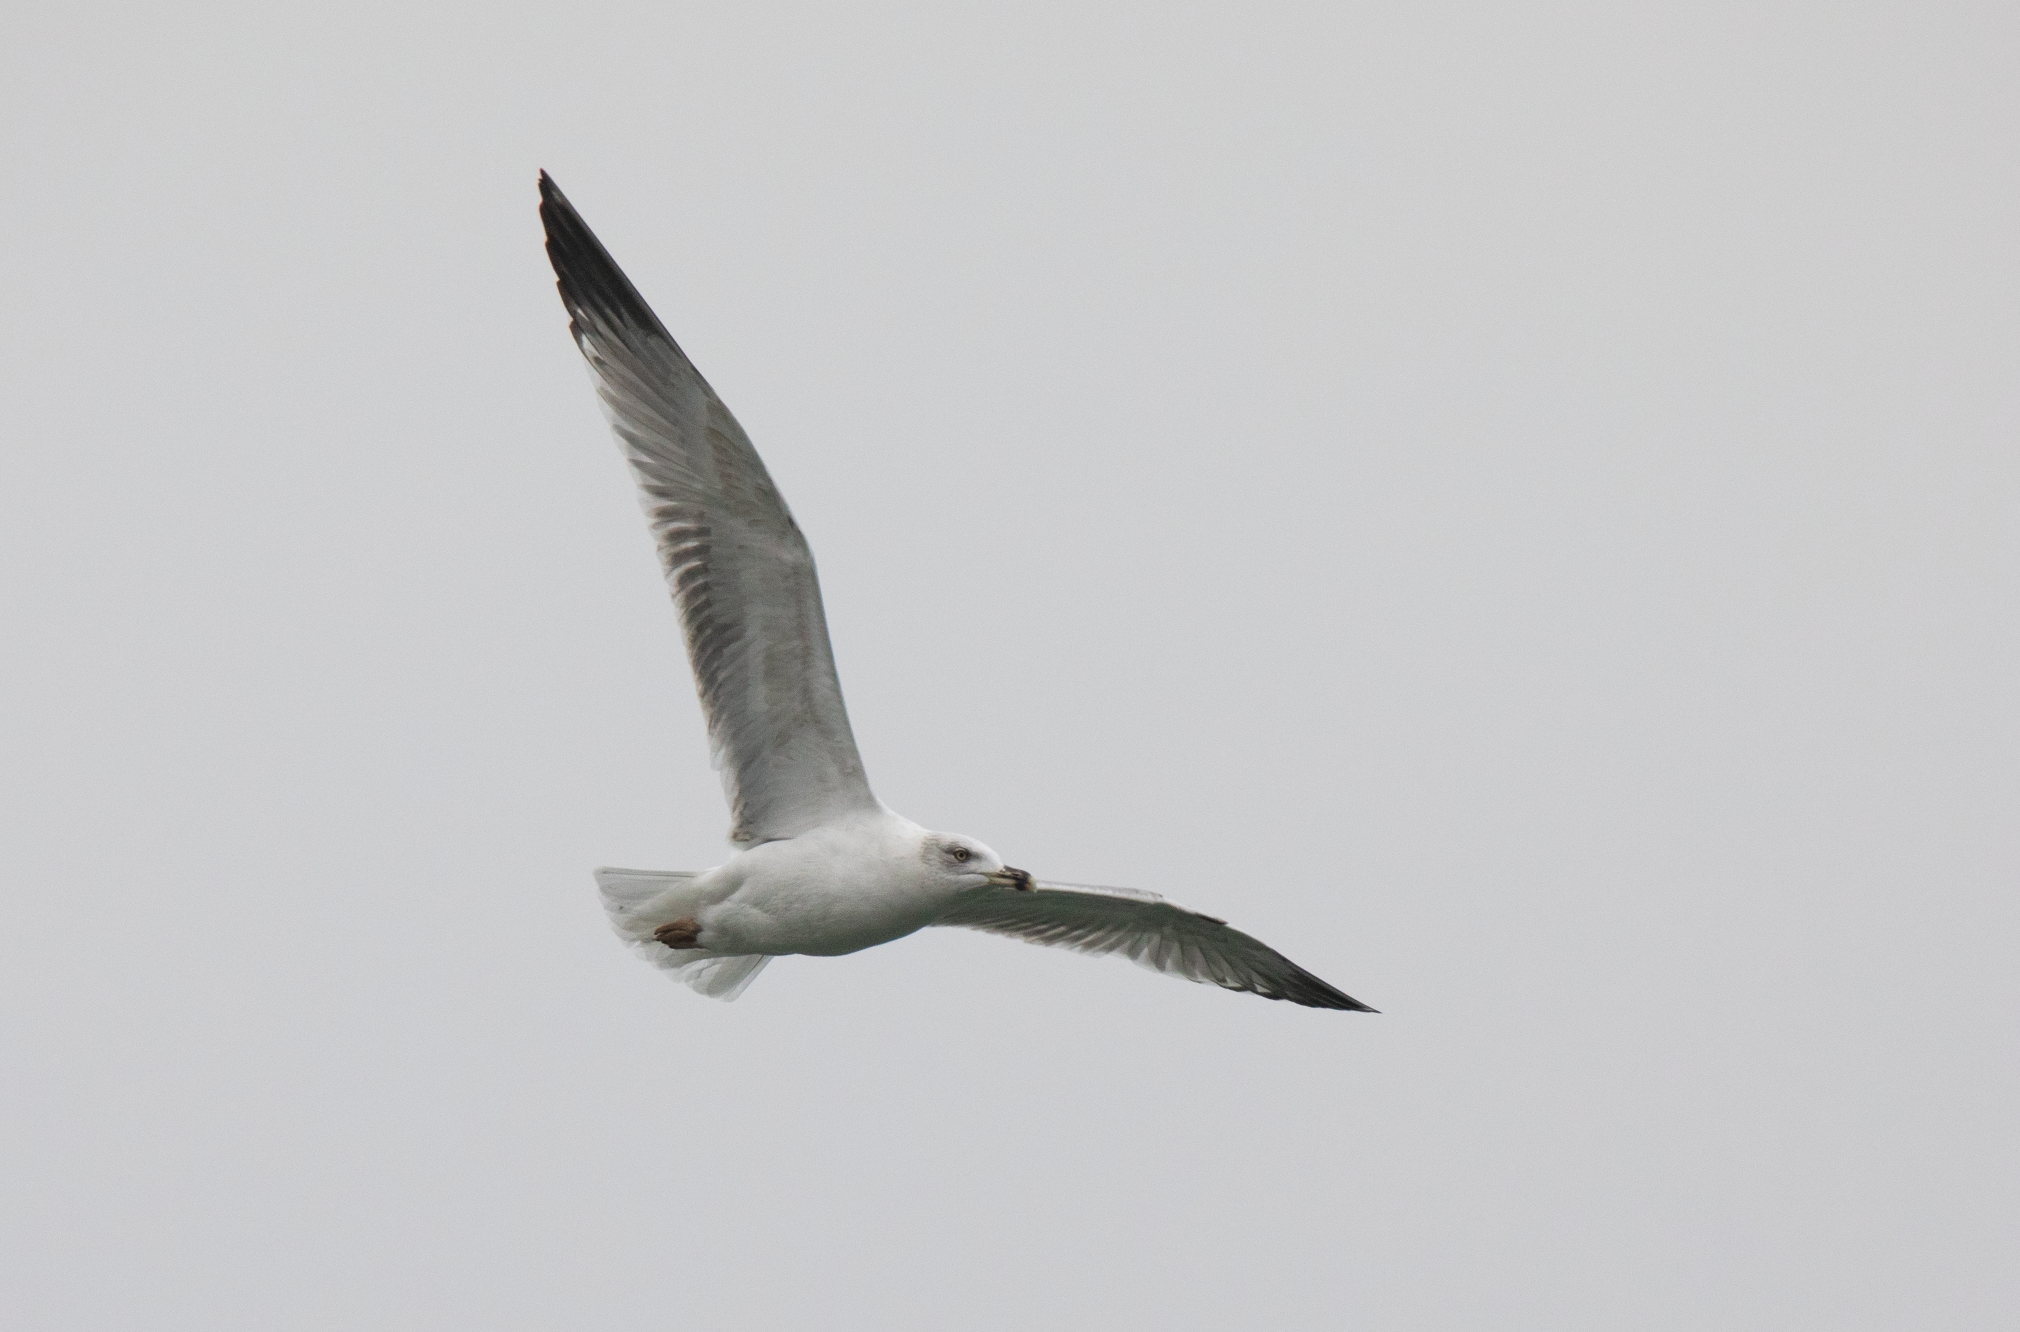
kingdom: Animalia
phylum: Chordata
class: Aves
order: Charadriiformes
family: Laridae
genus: Larus
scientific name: Larus michahellis
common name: Yellow-legged gull
